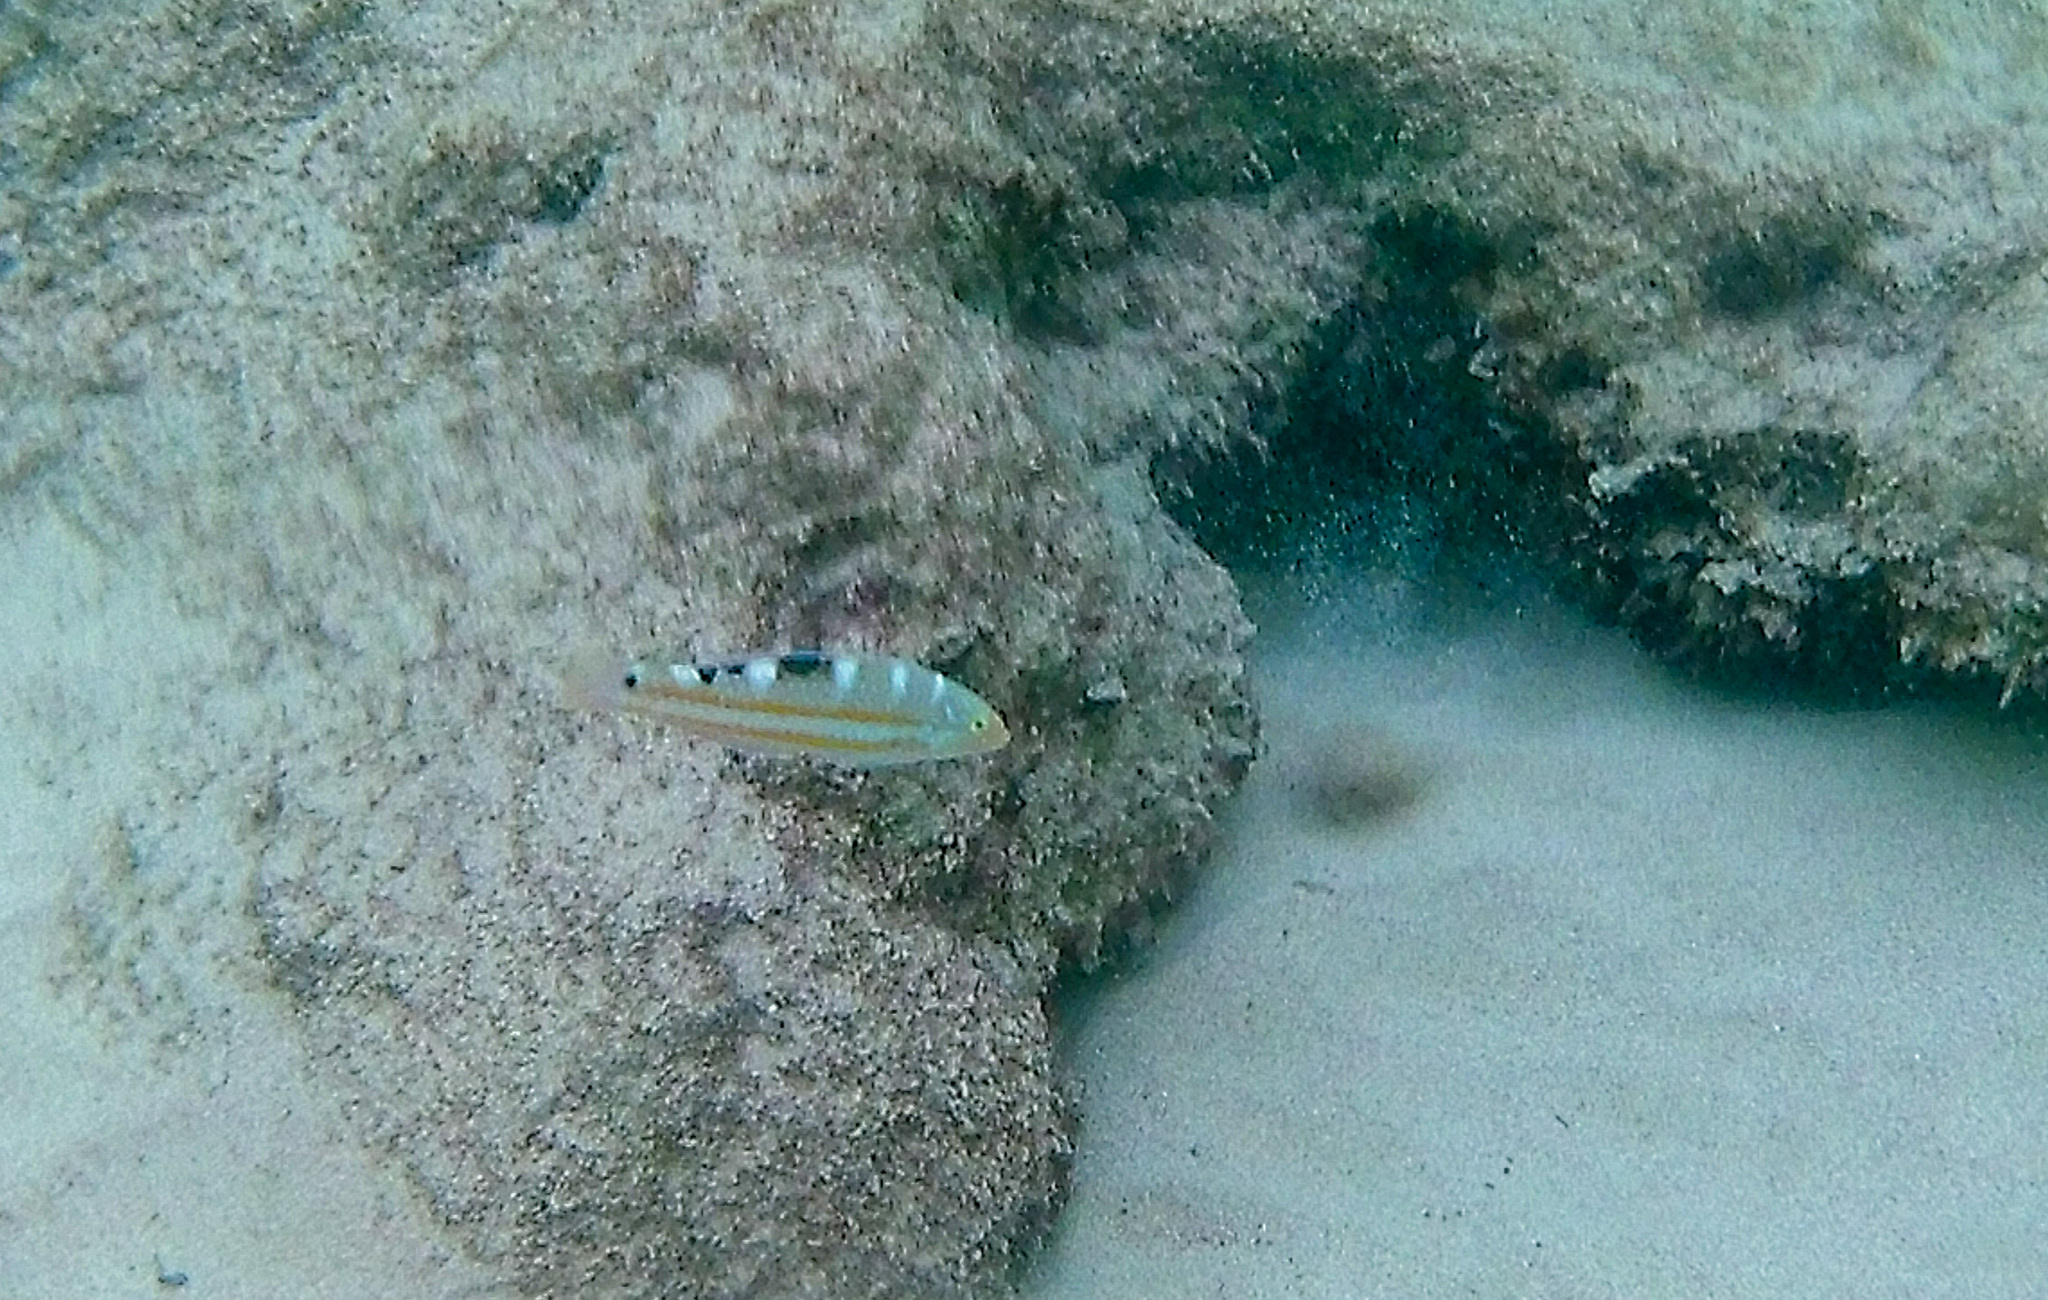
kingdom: Animalia
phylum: Chordata
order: Perciformes
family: Labridae
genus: Halichoeres
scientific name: Halichoeres radiatus
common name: Puddingwife
